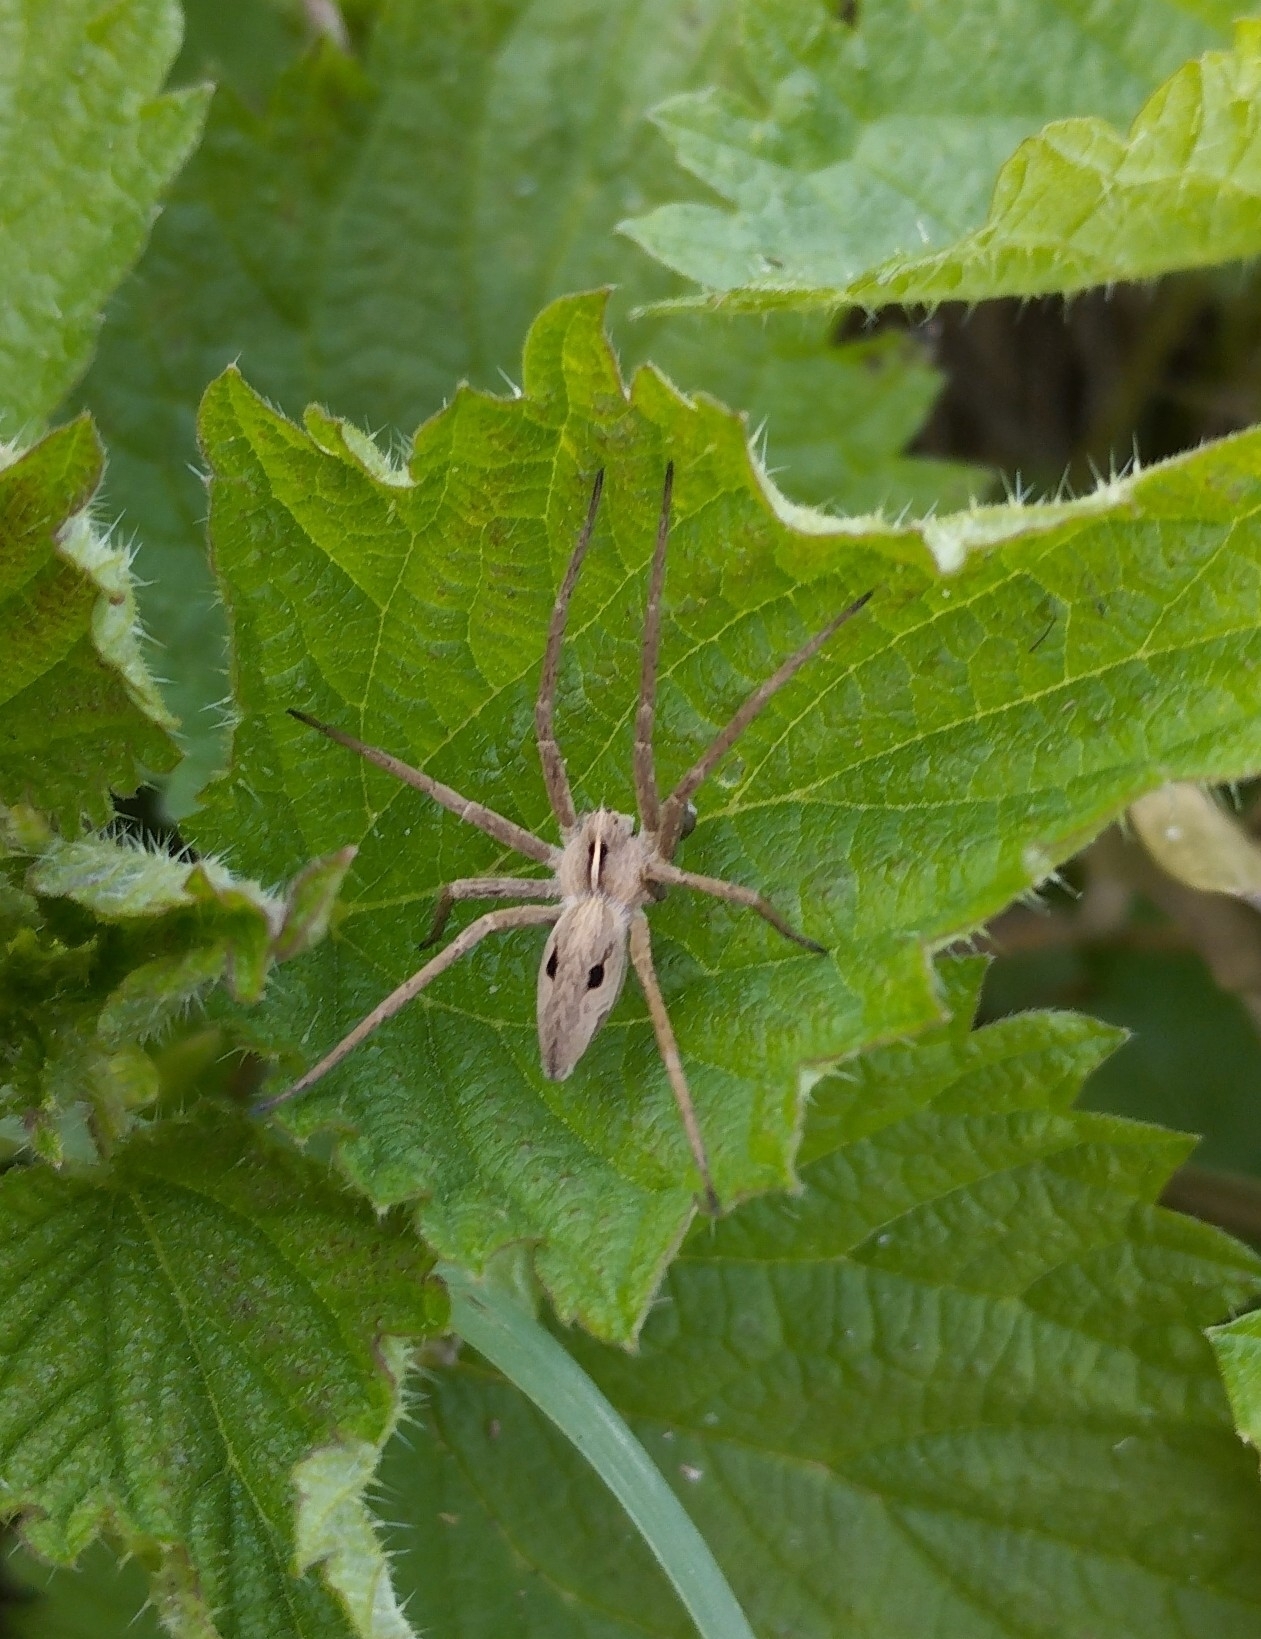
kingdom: Animalia
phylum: Arthropoda
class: Arachnida
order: Araneae
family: Pisauridae
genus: Pisaura
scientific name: Pisaura mirabilis
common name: Tent spider
